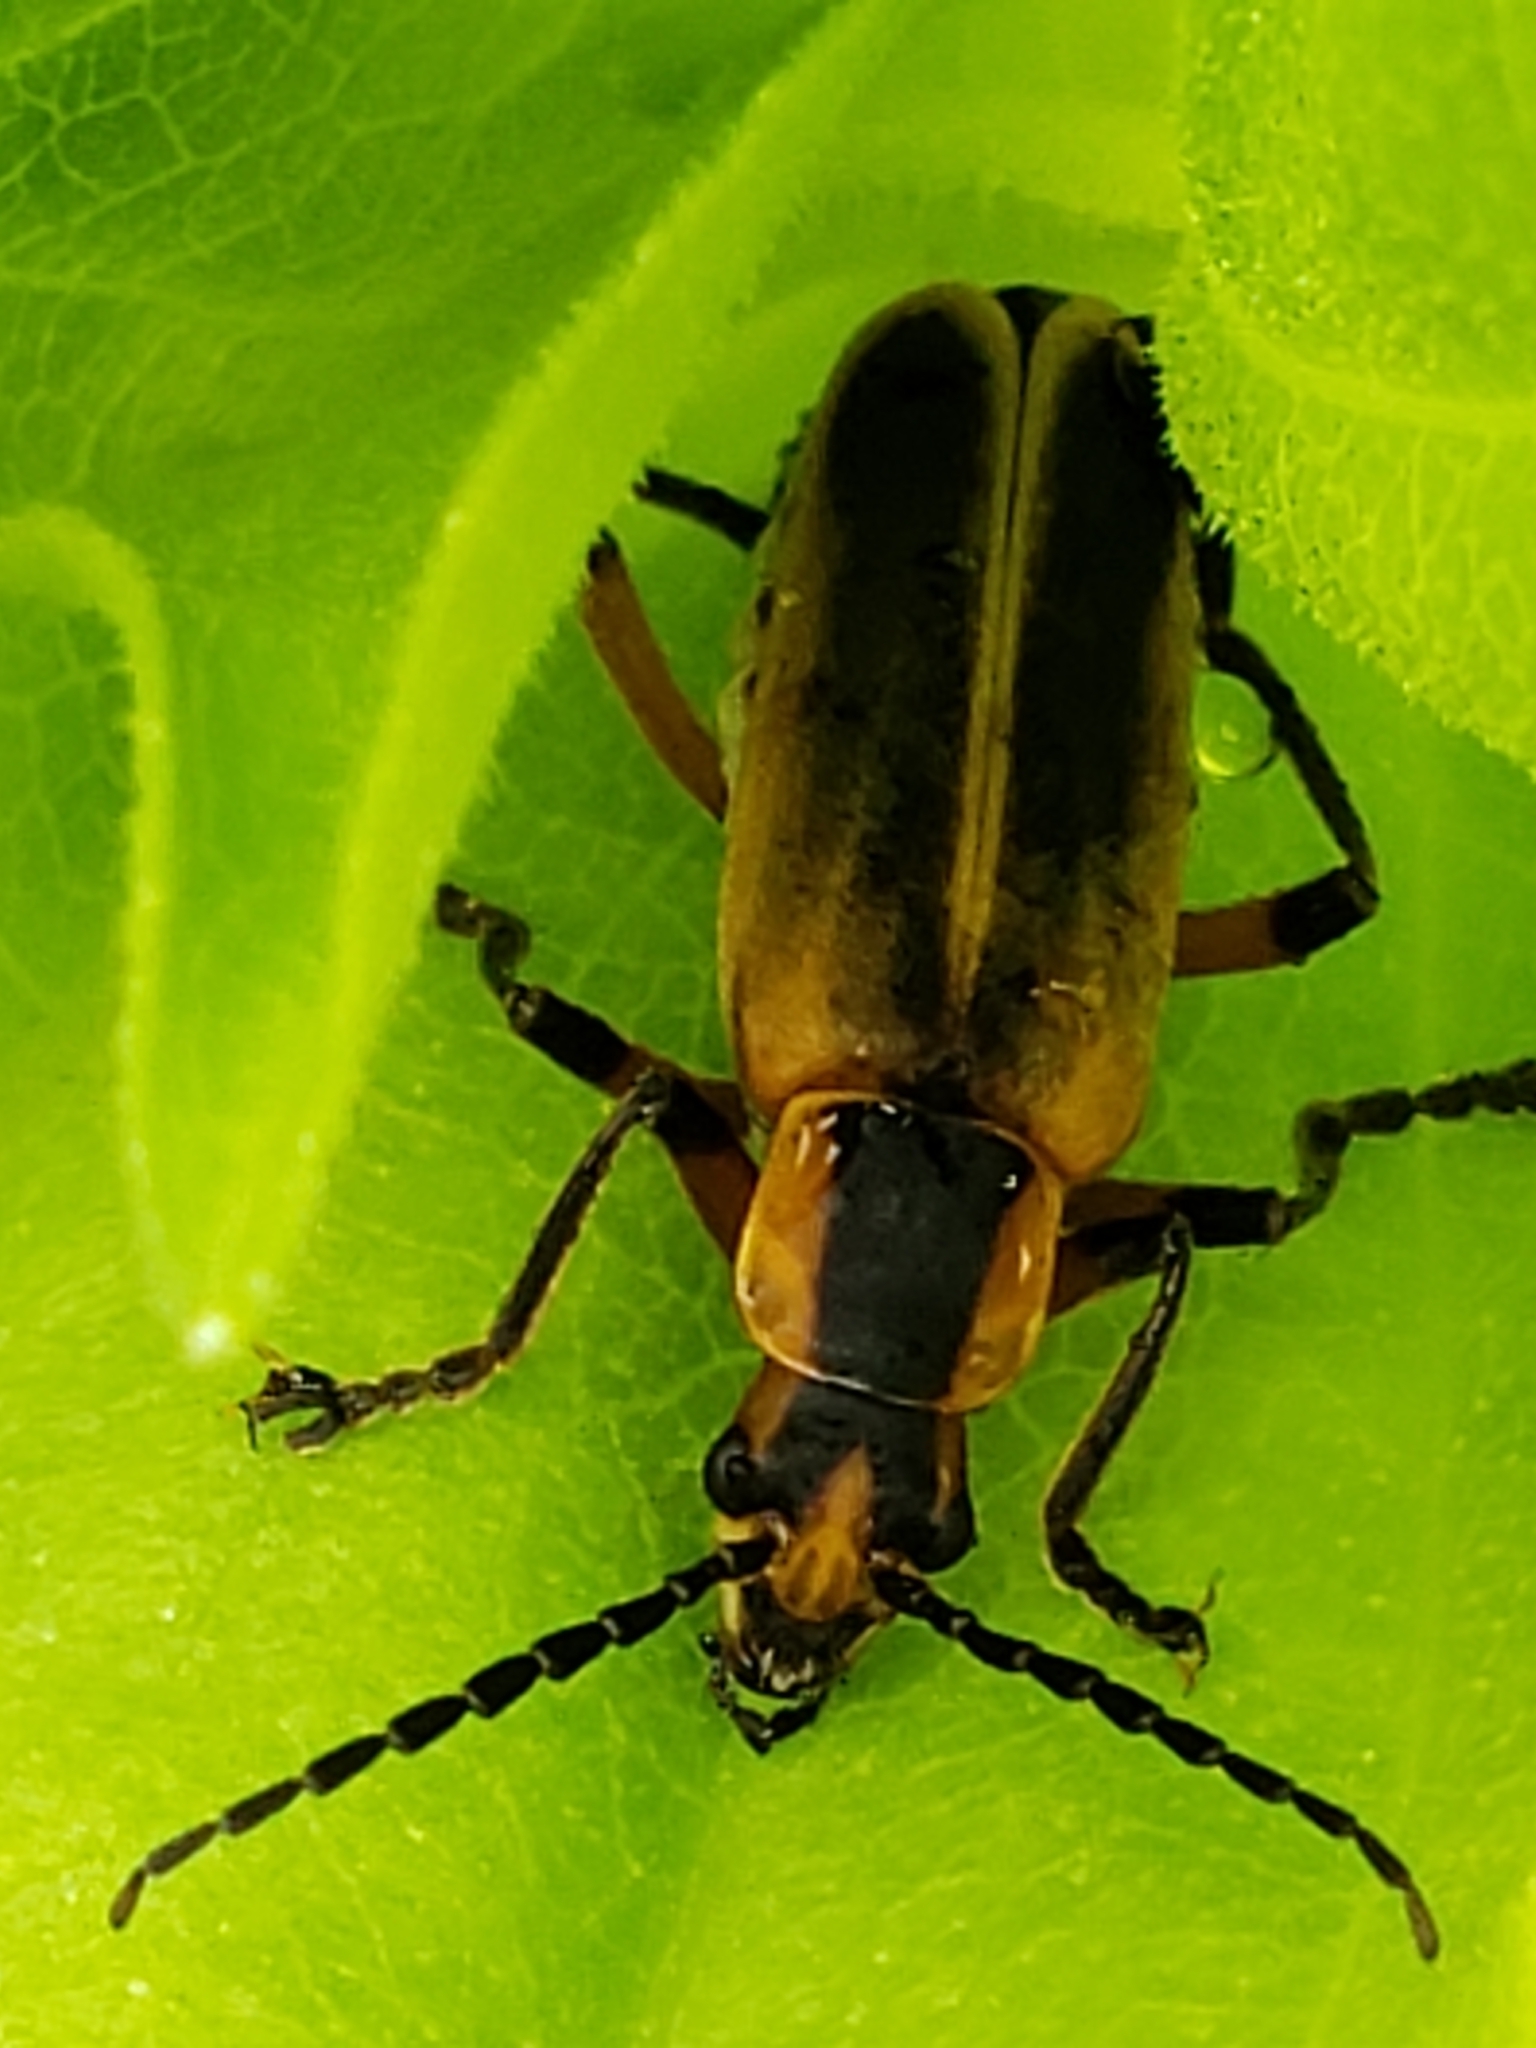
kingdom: Animalia
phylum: Arthropoda
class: Insecta
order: Coleoptera
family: Cantharidae
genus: Chauliognathus
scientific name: Chauliognathus marginatus
